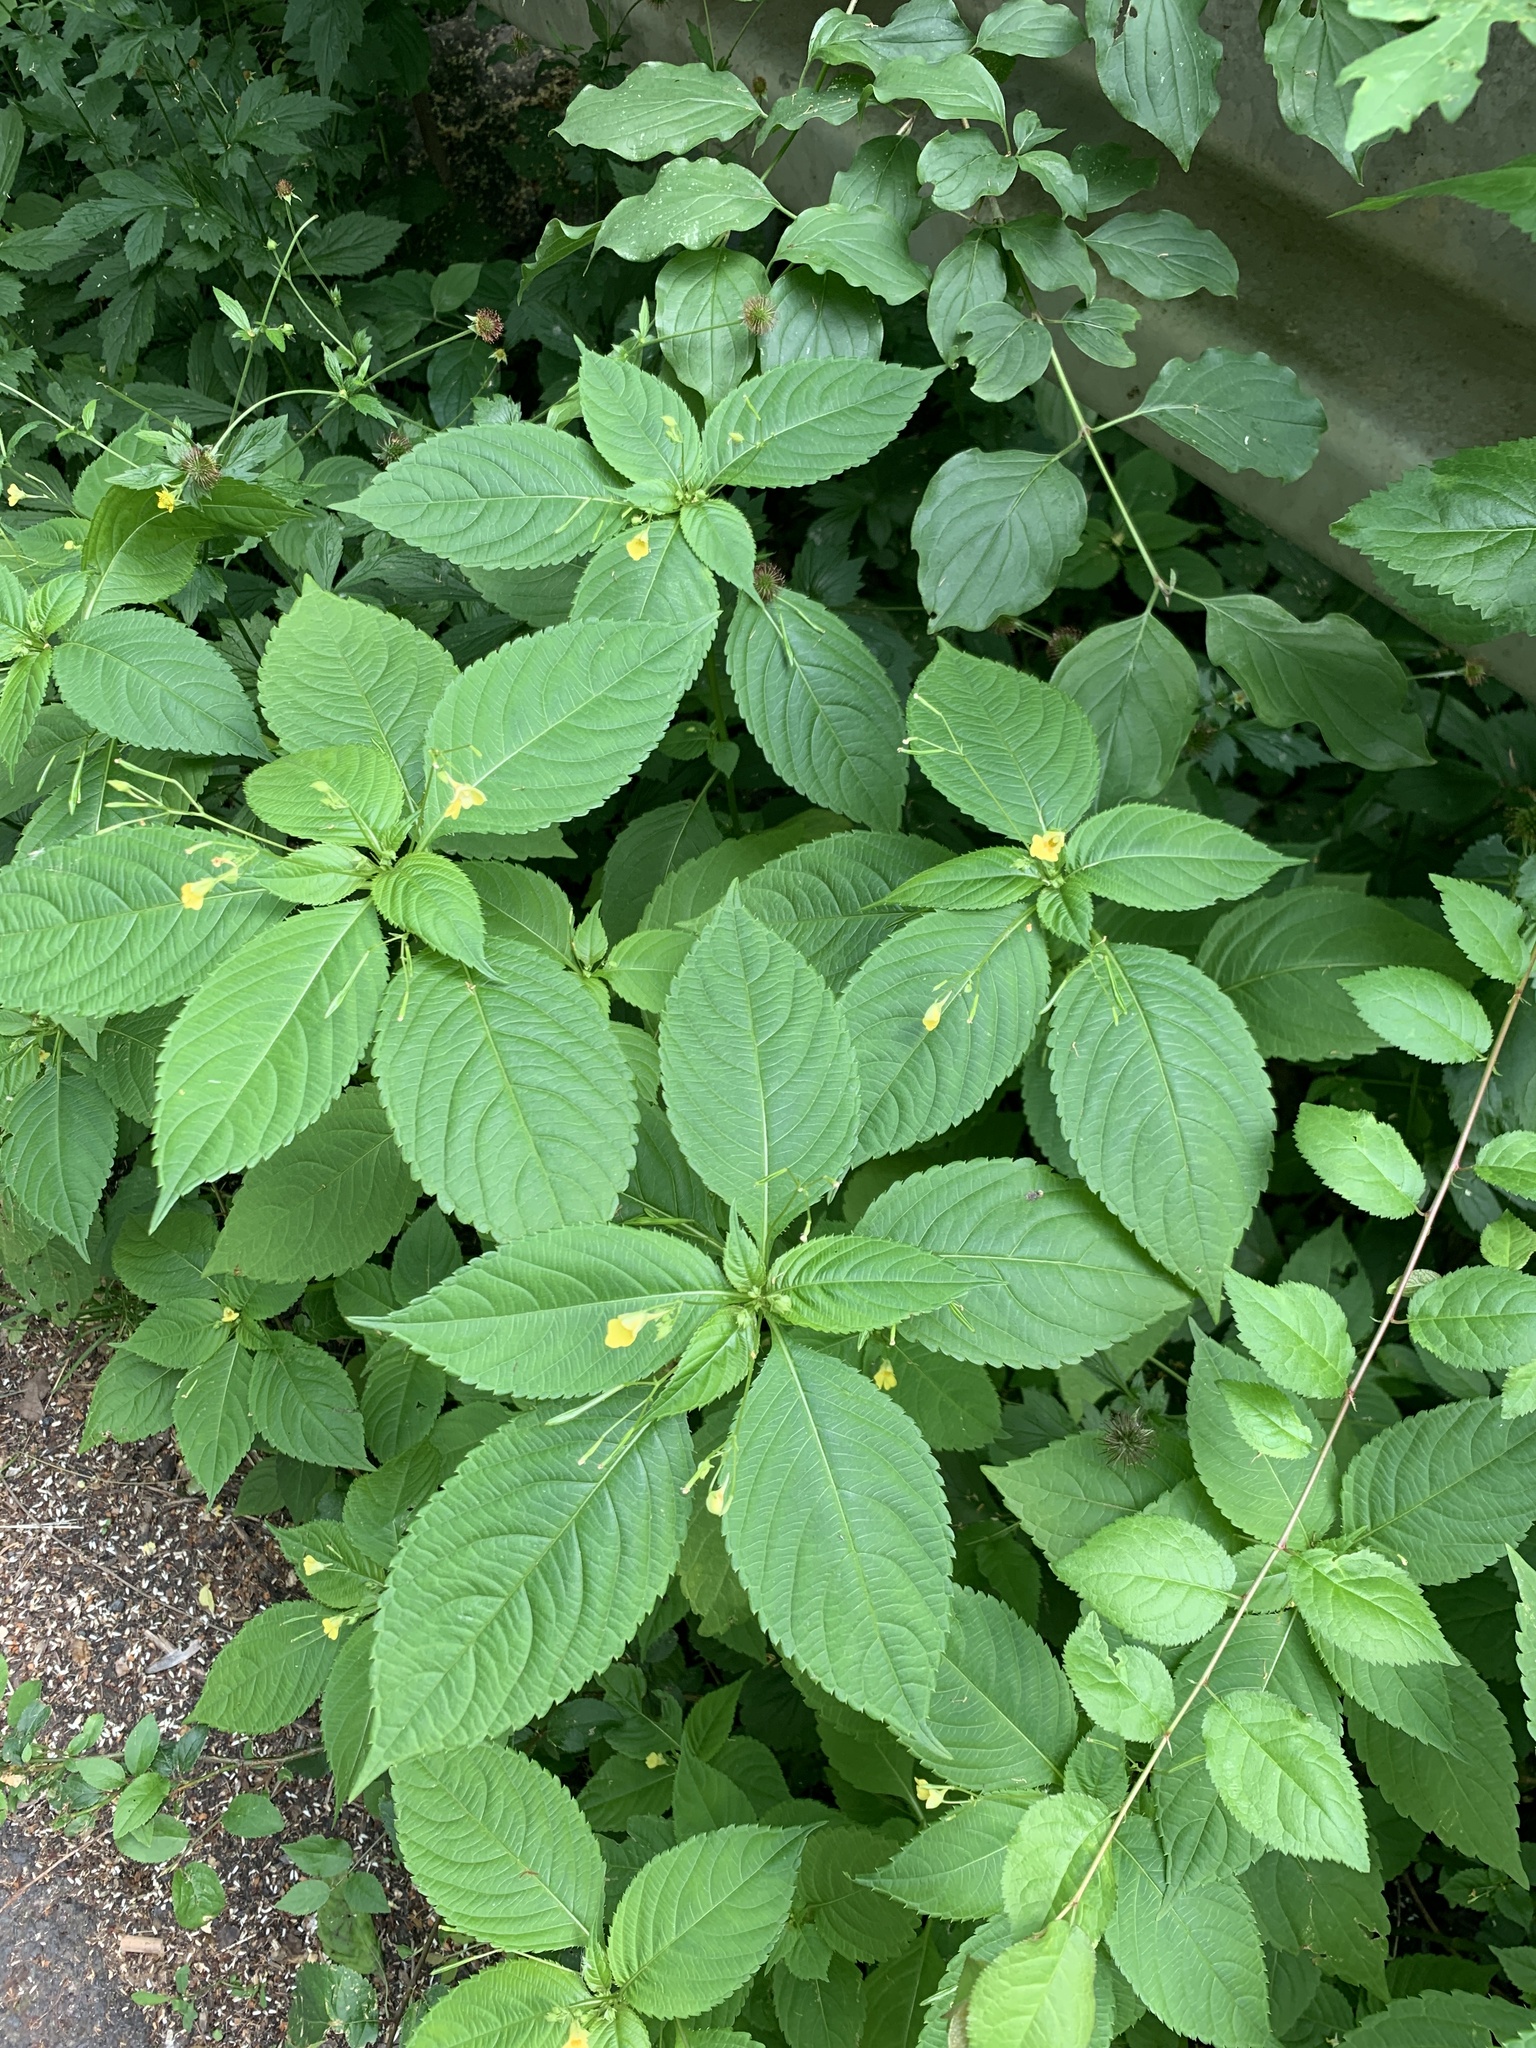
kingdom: Plantae
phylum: Tracheophyta
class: Magnoliopsida
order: Ericales
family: Balsaminaceae
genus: Impatiens
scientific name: Impatiens parviflora
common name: Small balsam
